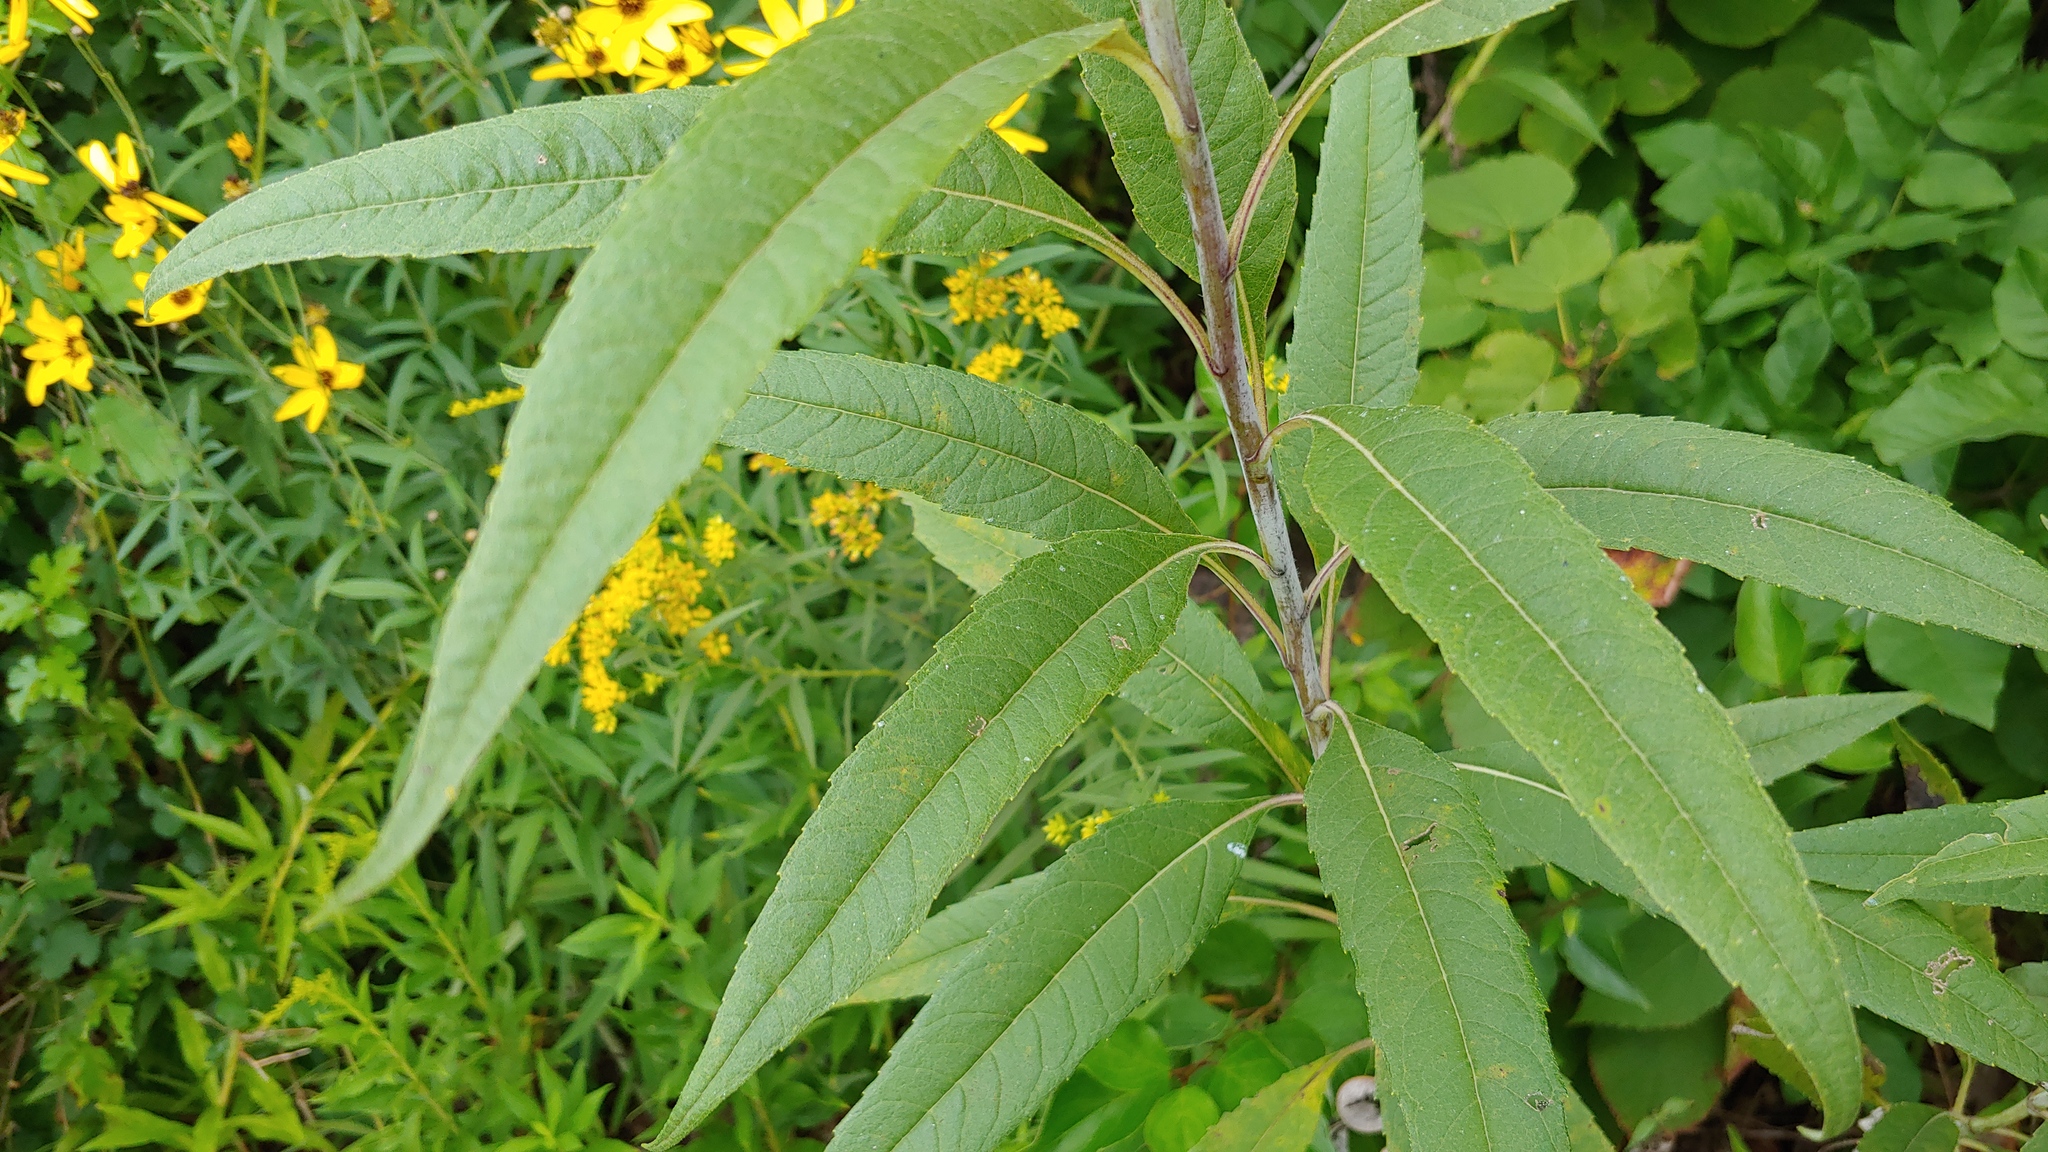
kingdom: Plantae
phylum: Tracheophyta
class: Magnoliopsida
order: Asterales
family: Asteraceae
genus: Helianthus
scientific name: Helianthus grosseserratus
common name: Sawtooth sunflower
